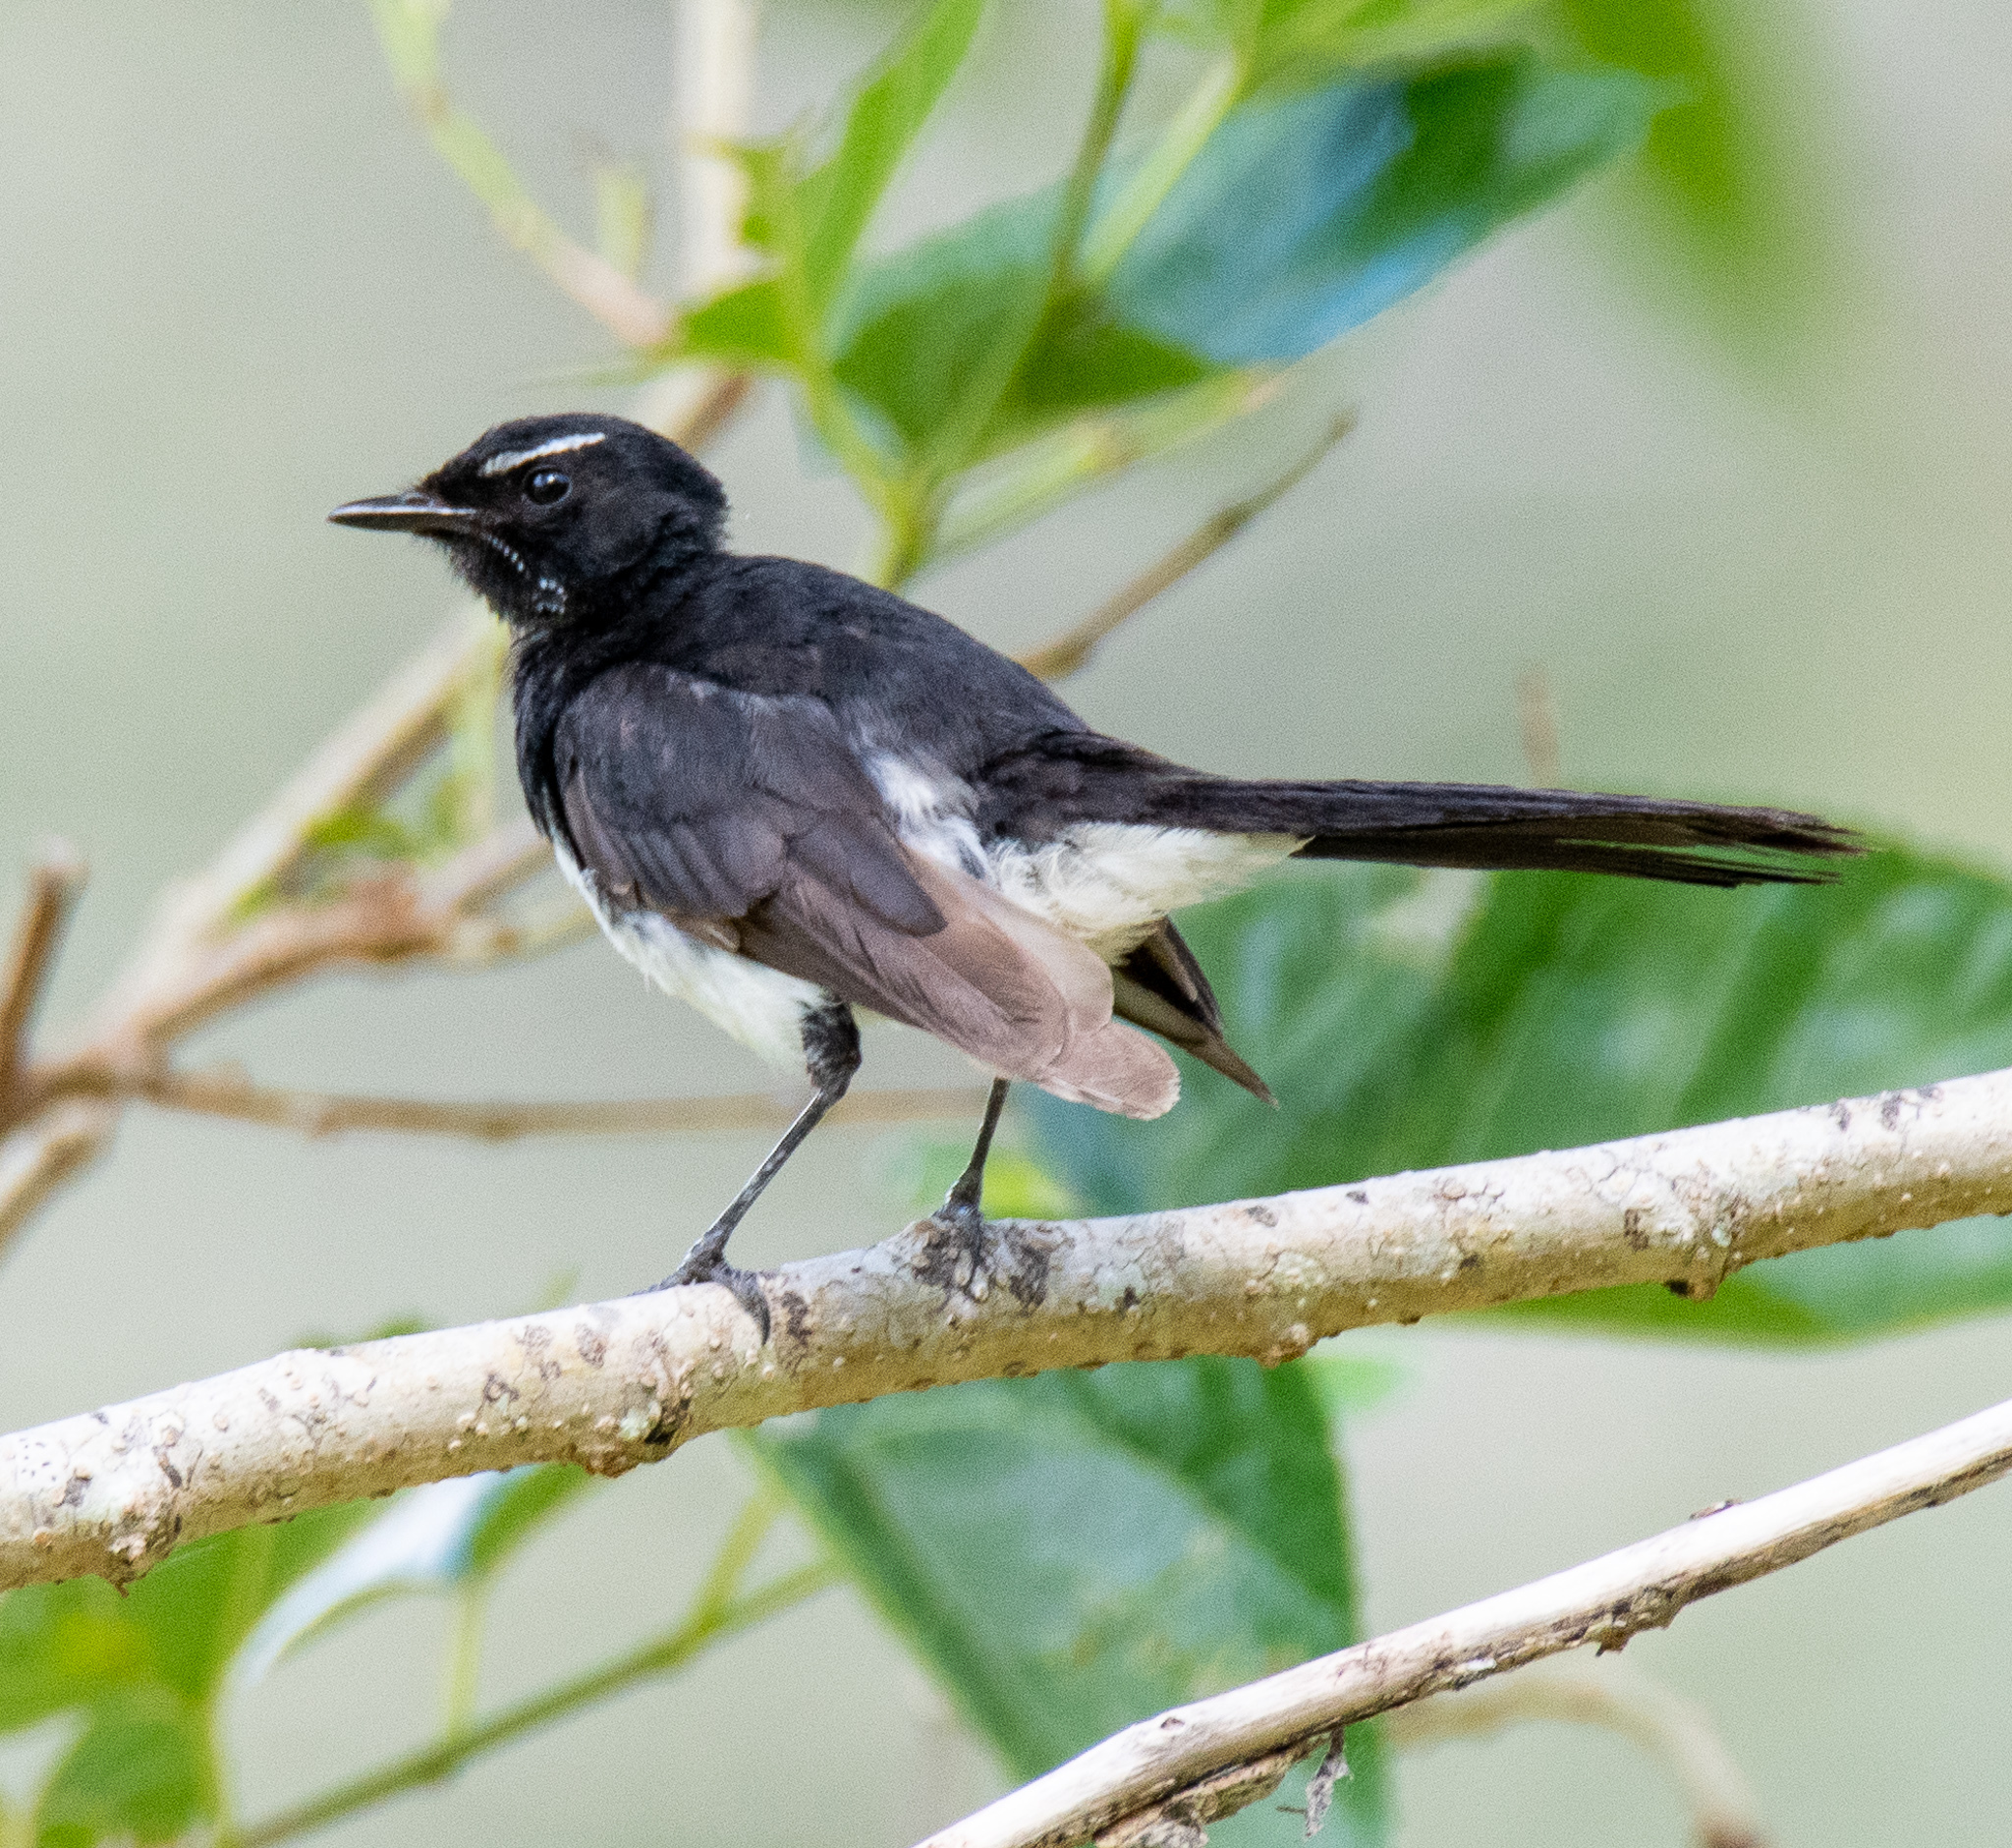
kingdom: Animalia
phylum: Chordata
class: Aves
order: Passeriformes
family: Rhipiduridae
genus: Rhipidura
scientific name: Rhipidura leucophrys
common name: Willie wagtail
